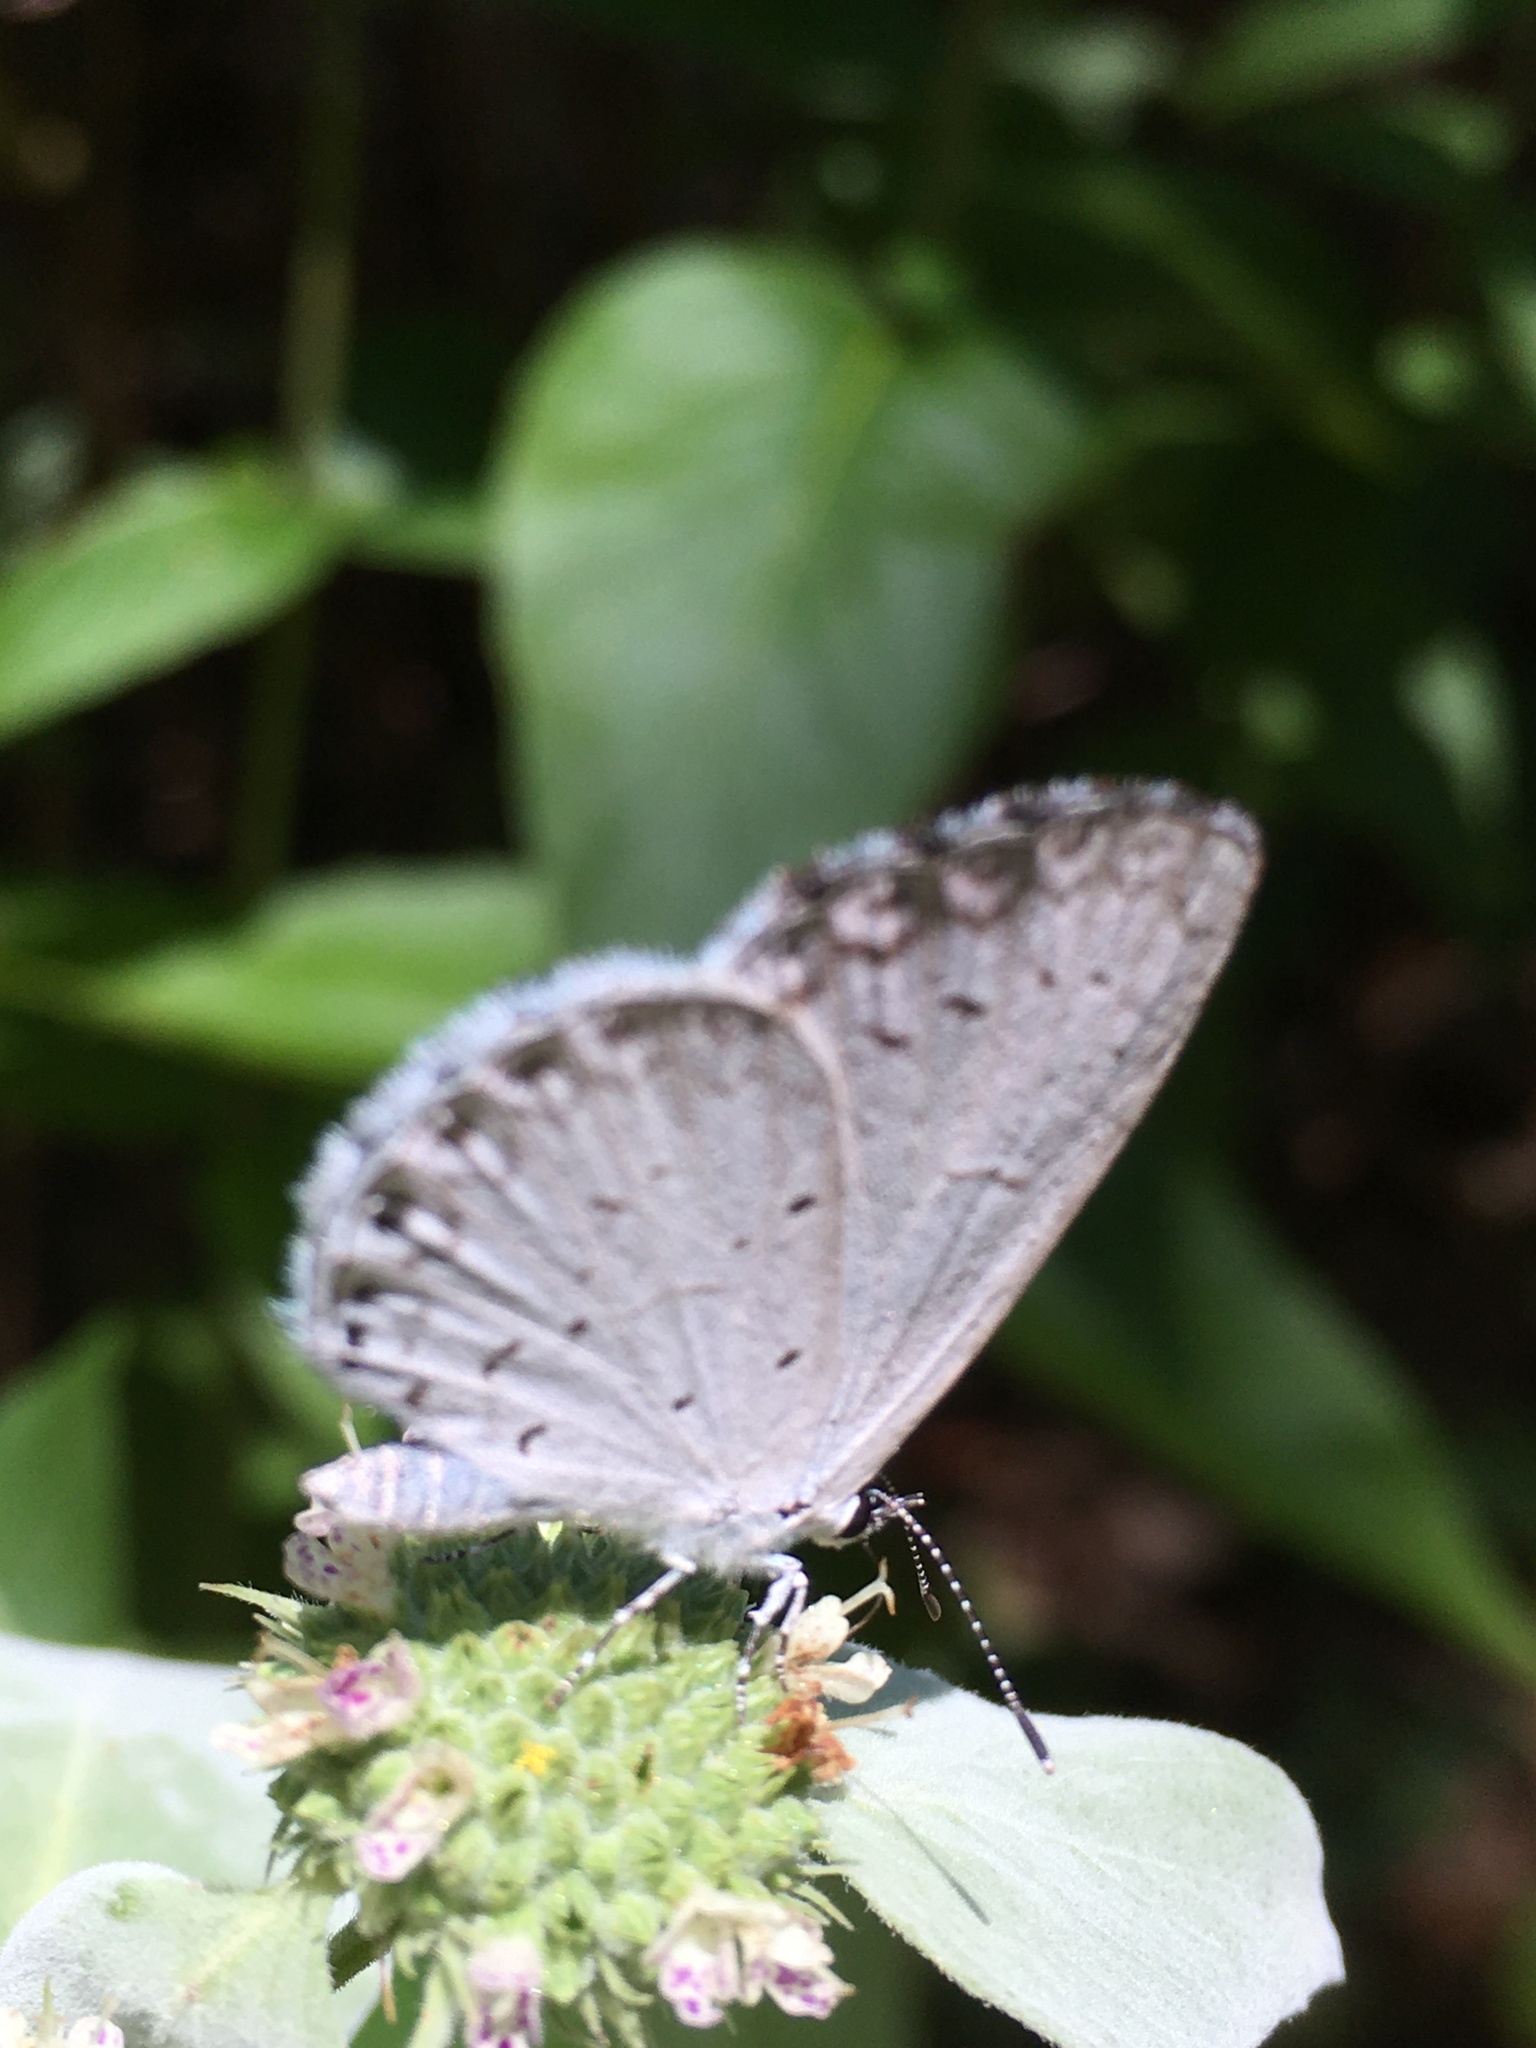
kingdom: Animalia
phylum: Arthropoda
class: Insecta
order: Lepidoptera
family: Lycaenidae
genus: Cyaniris
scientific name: Cyaniris neglecta
